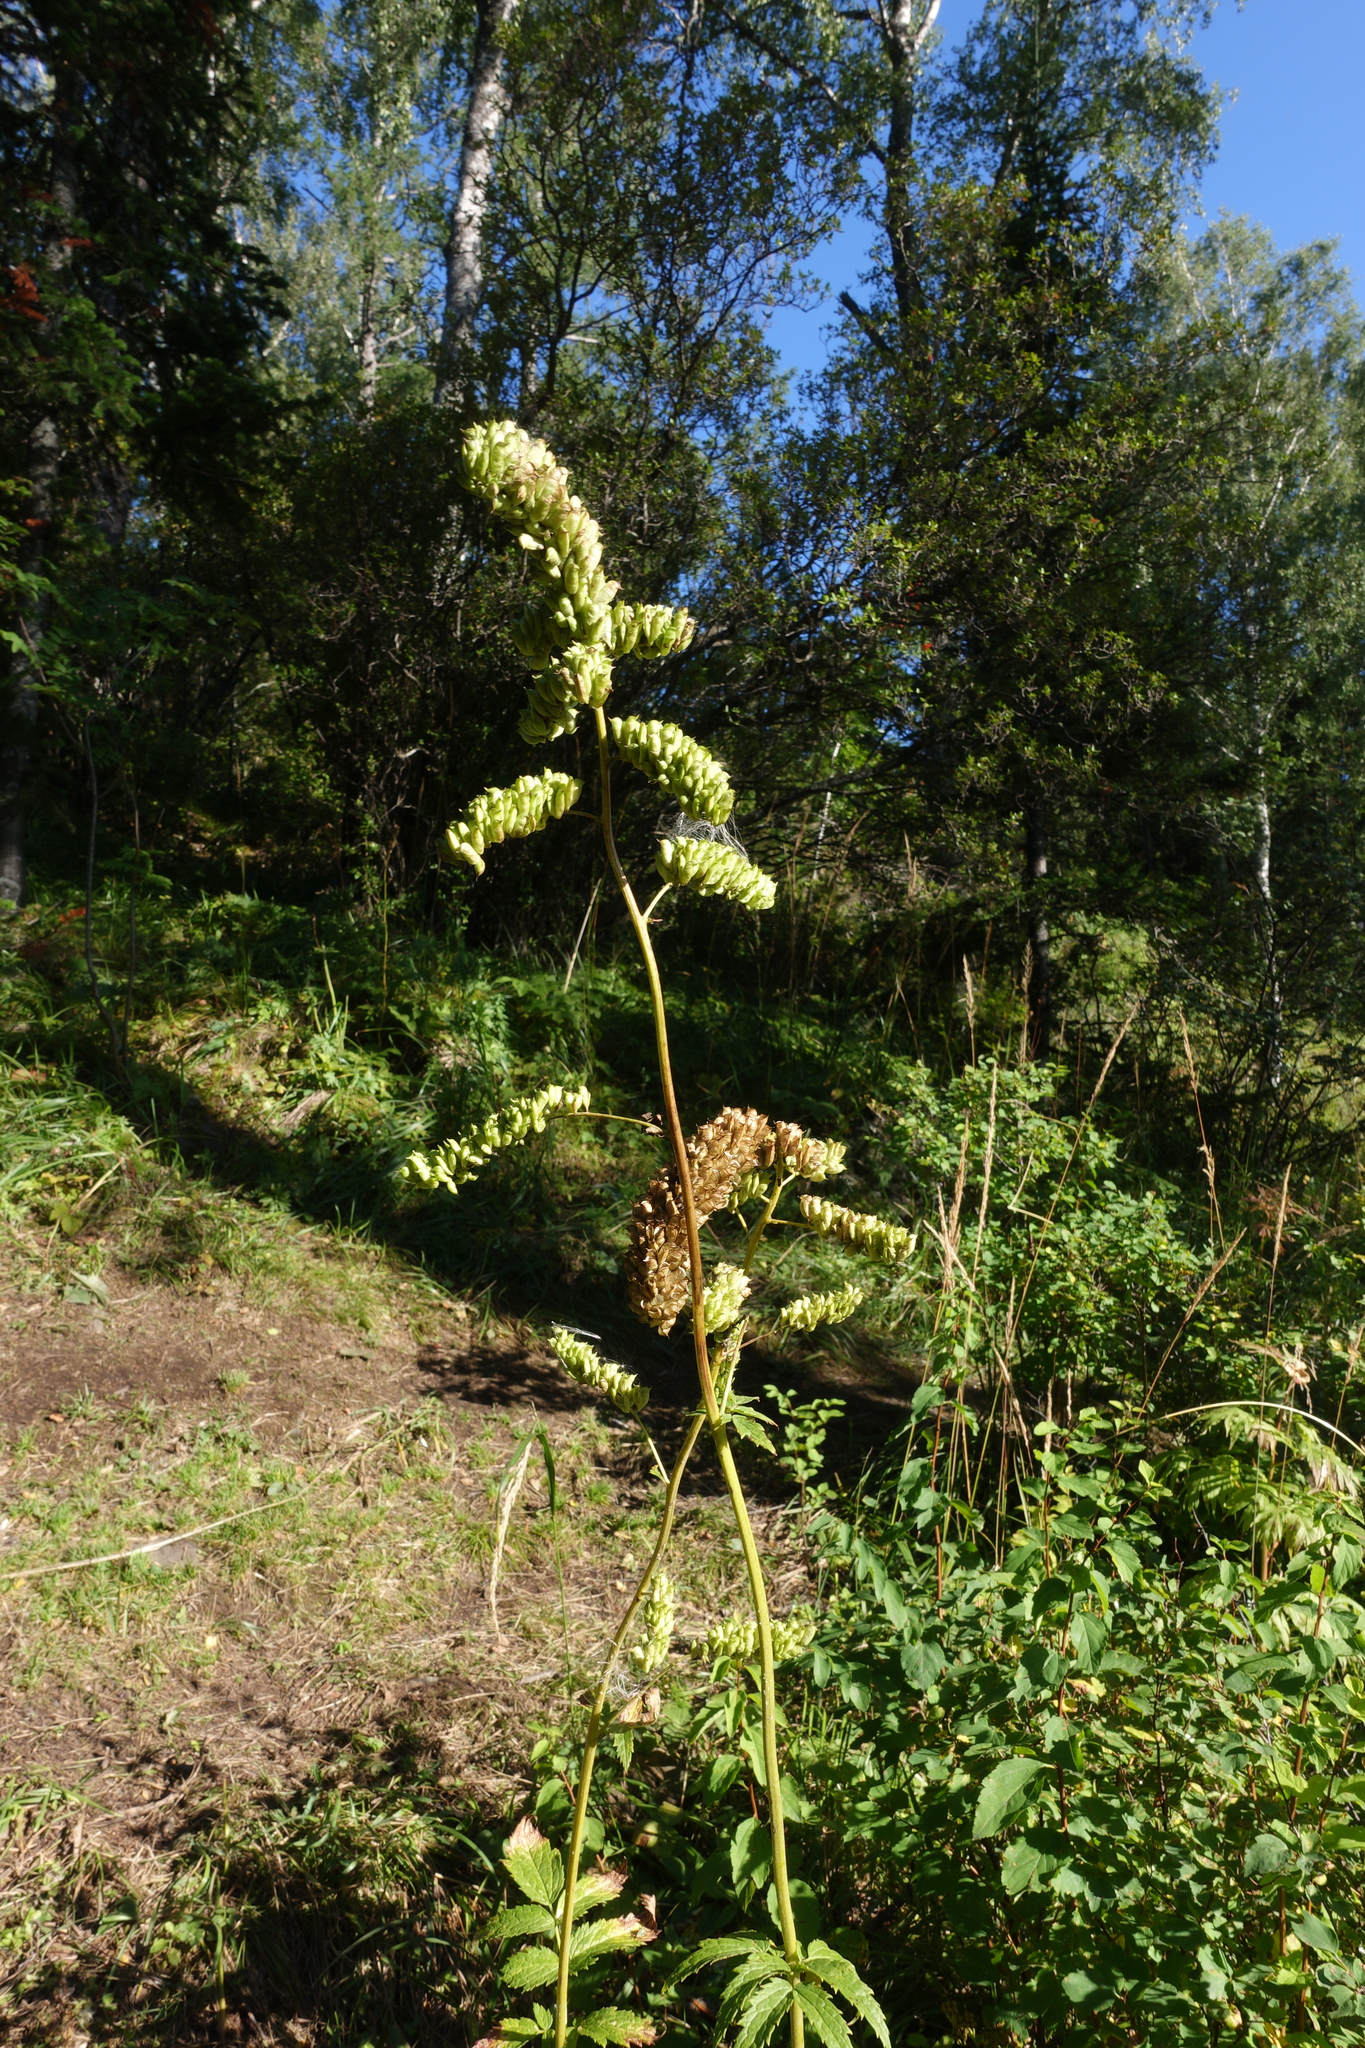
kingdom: Plantae
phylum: Tracheophyta
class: Magnoliopsida
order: Ranunculales
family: Ranunculaceae
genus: Actaea
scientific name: Actaea cimicifuga
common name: Chinese cimicifuga
